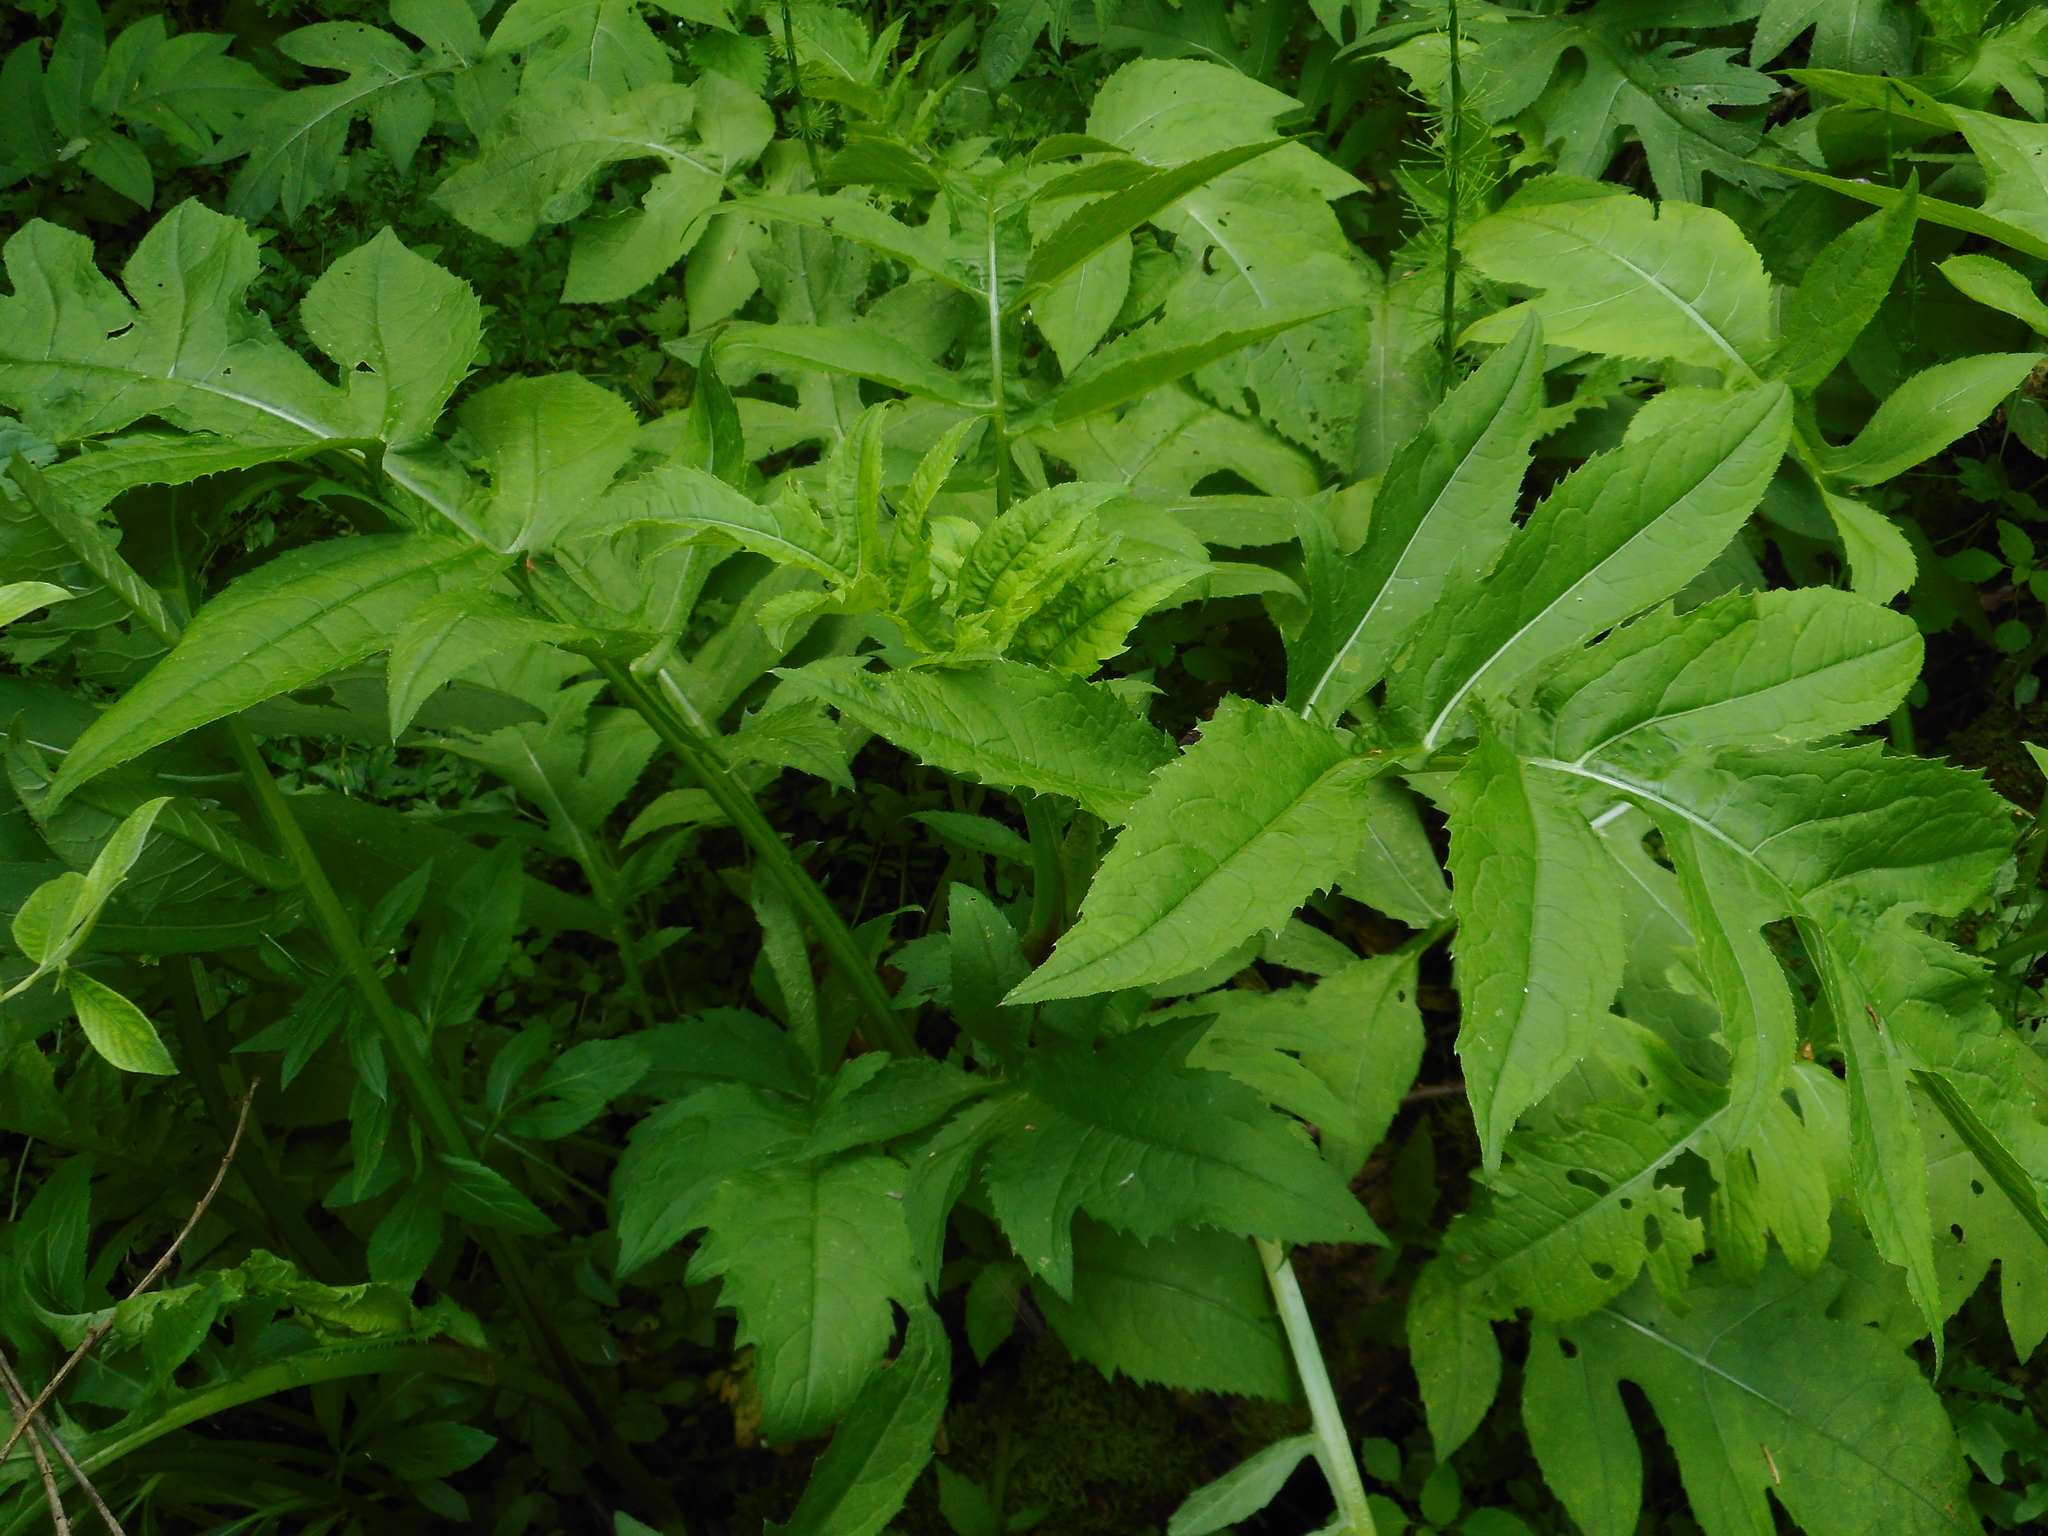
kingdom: Plantae
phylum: Tracheophyta
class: Magnoliopsida
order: Asterales
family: Asteraceae
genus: Cirsium
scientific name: Cirsium oleraceum
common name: Cabbage thistle
